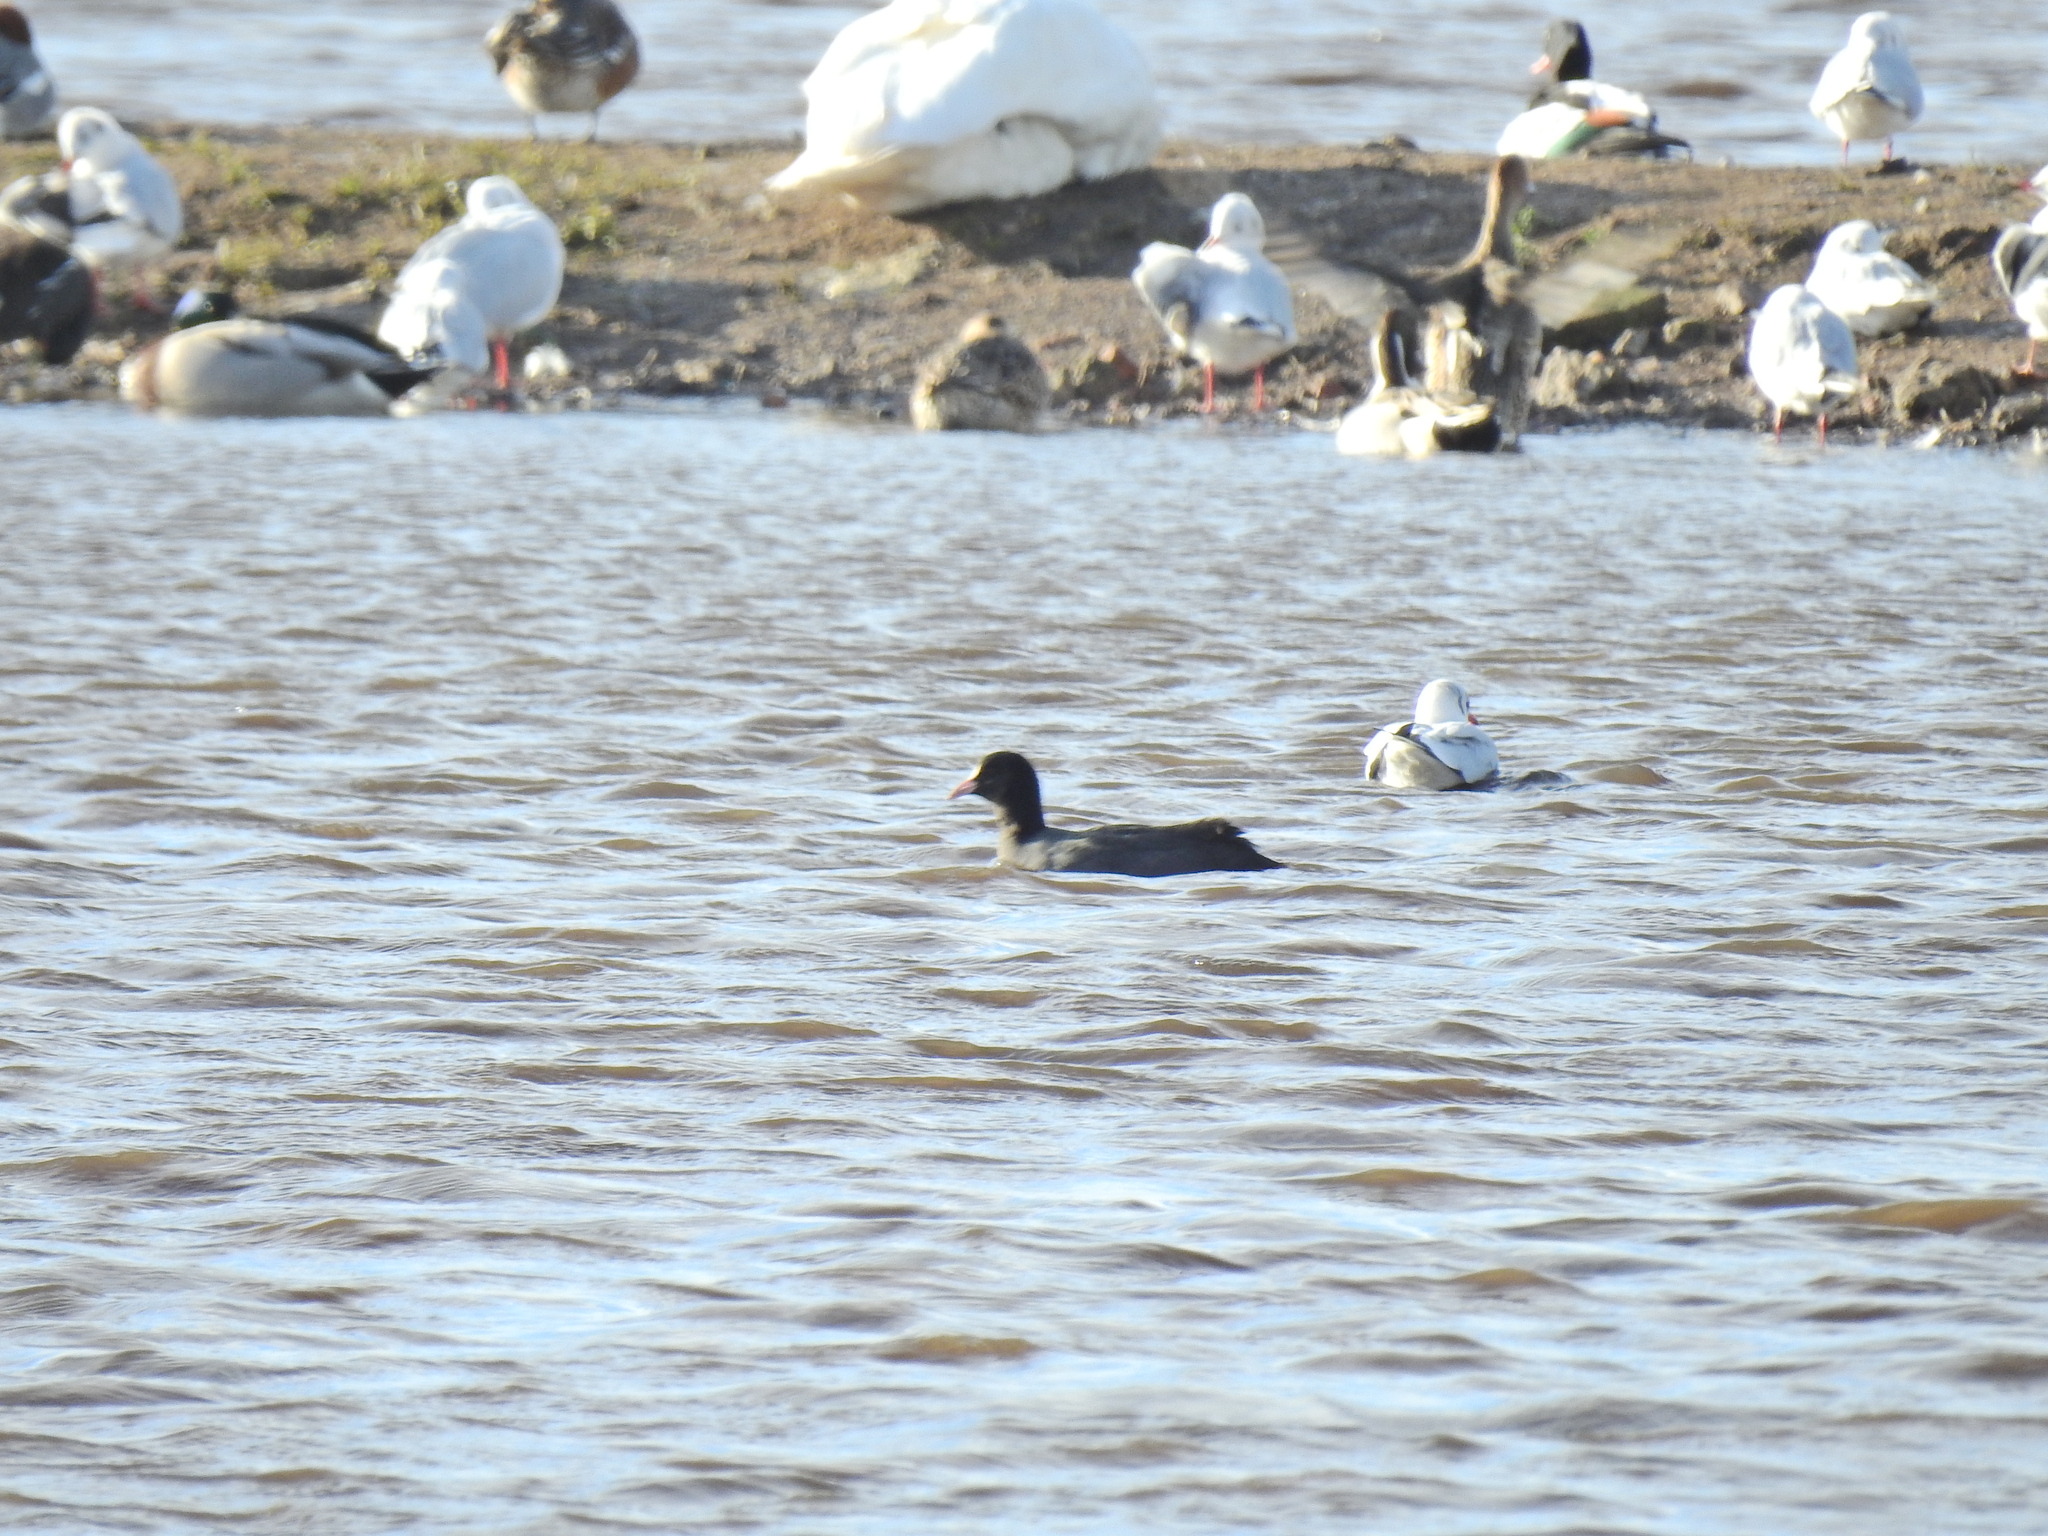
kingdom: Animalia
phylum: Chordata
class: Aves
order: Gruiformes
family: Rallidae
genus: Fulica
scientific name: Fulica atra
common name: Eurasian coot
